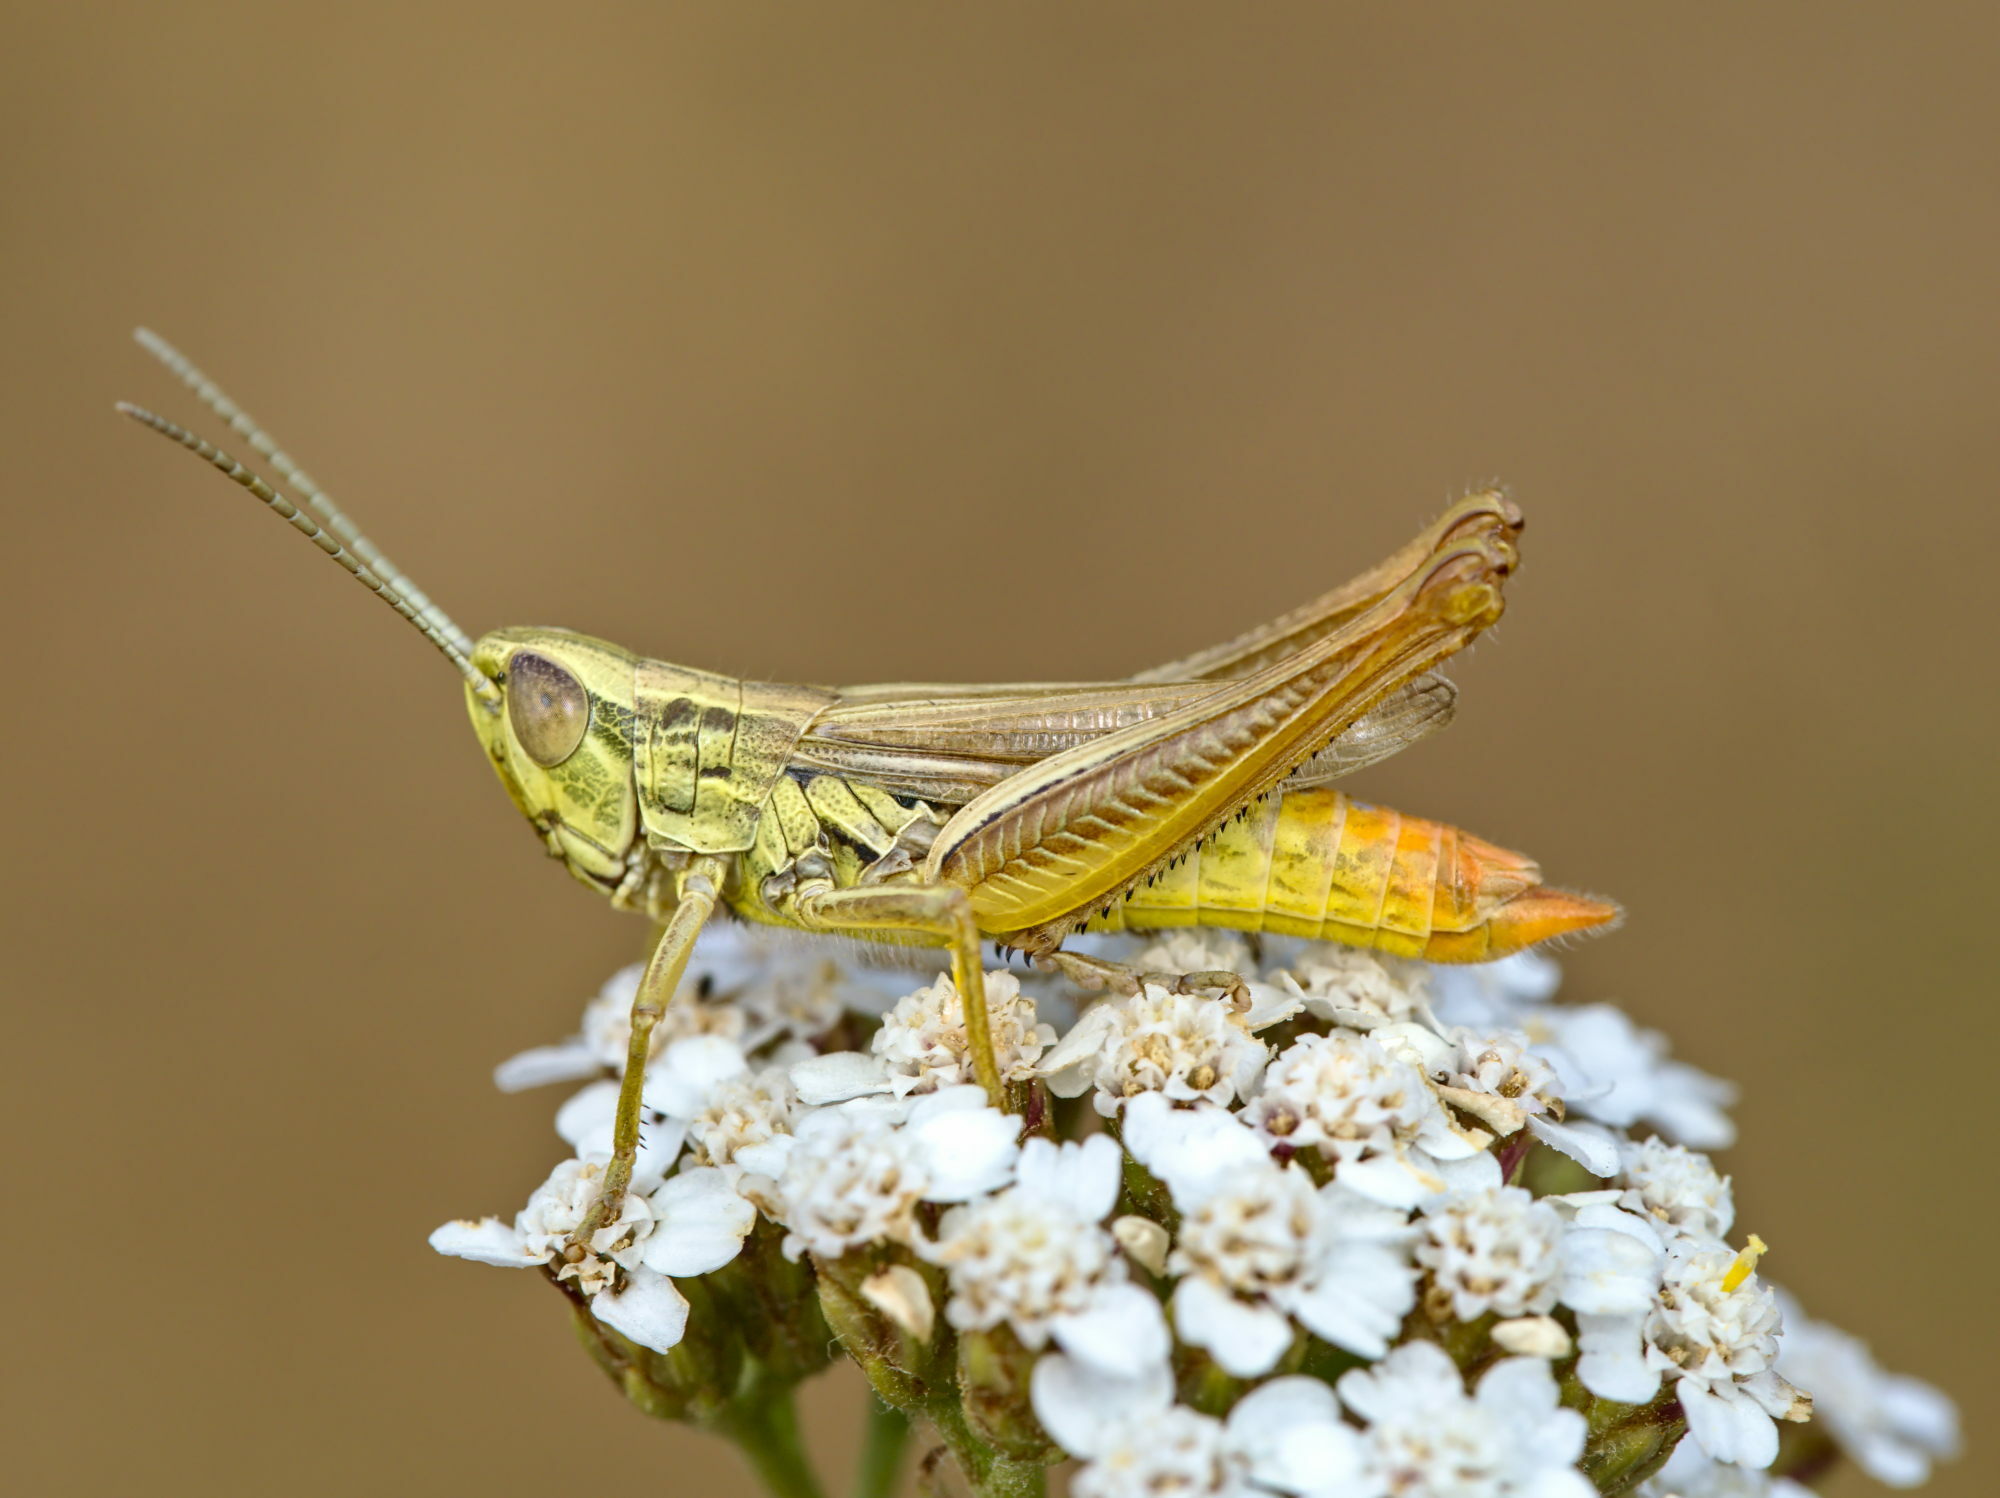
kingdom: Animalia
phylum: Arthropoda
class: Insecta
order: Orthoptera
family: Acrididae
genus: Euchorthippus
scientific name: Euchorthippus declivus
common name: Common straw grasshopper
